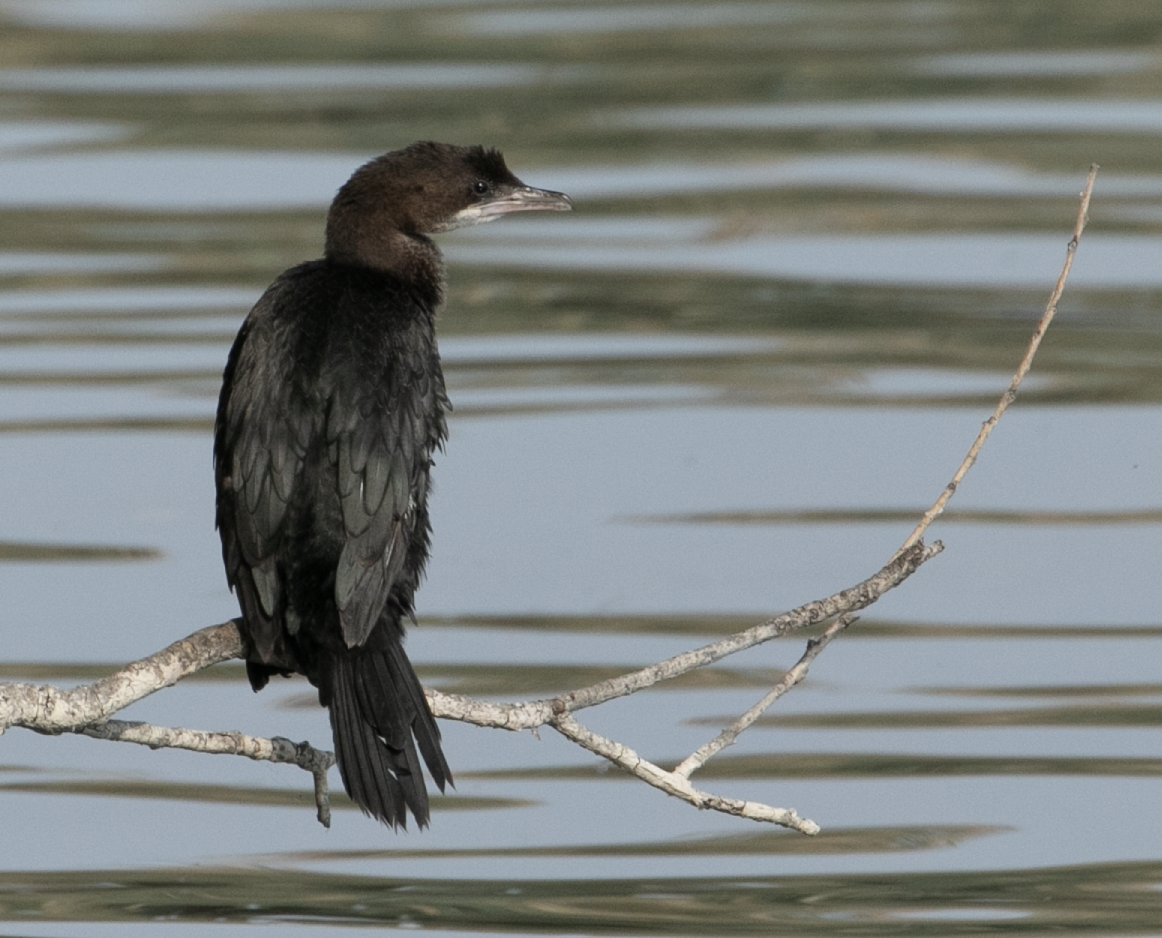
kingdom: Animalia
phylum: Chordata
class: Aves
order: Suliformes
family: Phalacrocoracidae
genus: Microcarbo
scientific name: Microcarbo pygmaeus
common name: Pygmy cormorant
